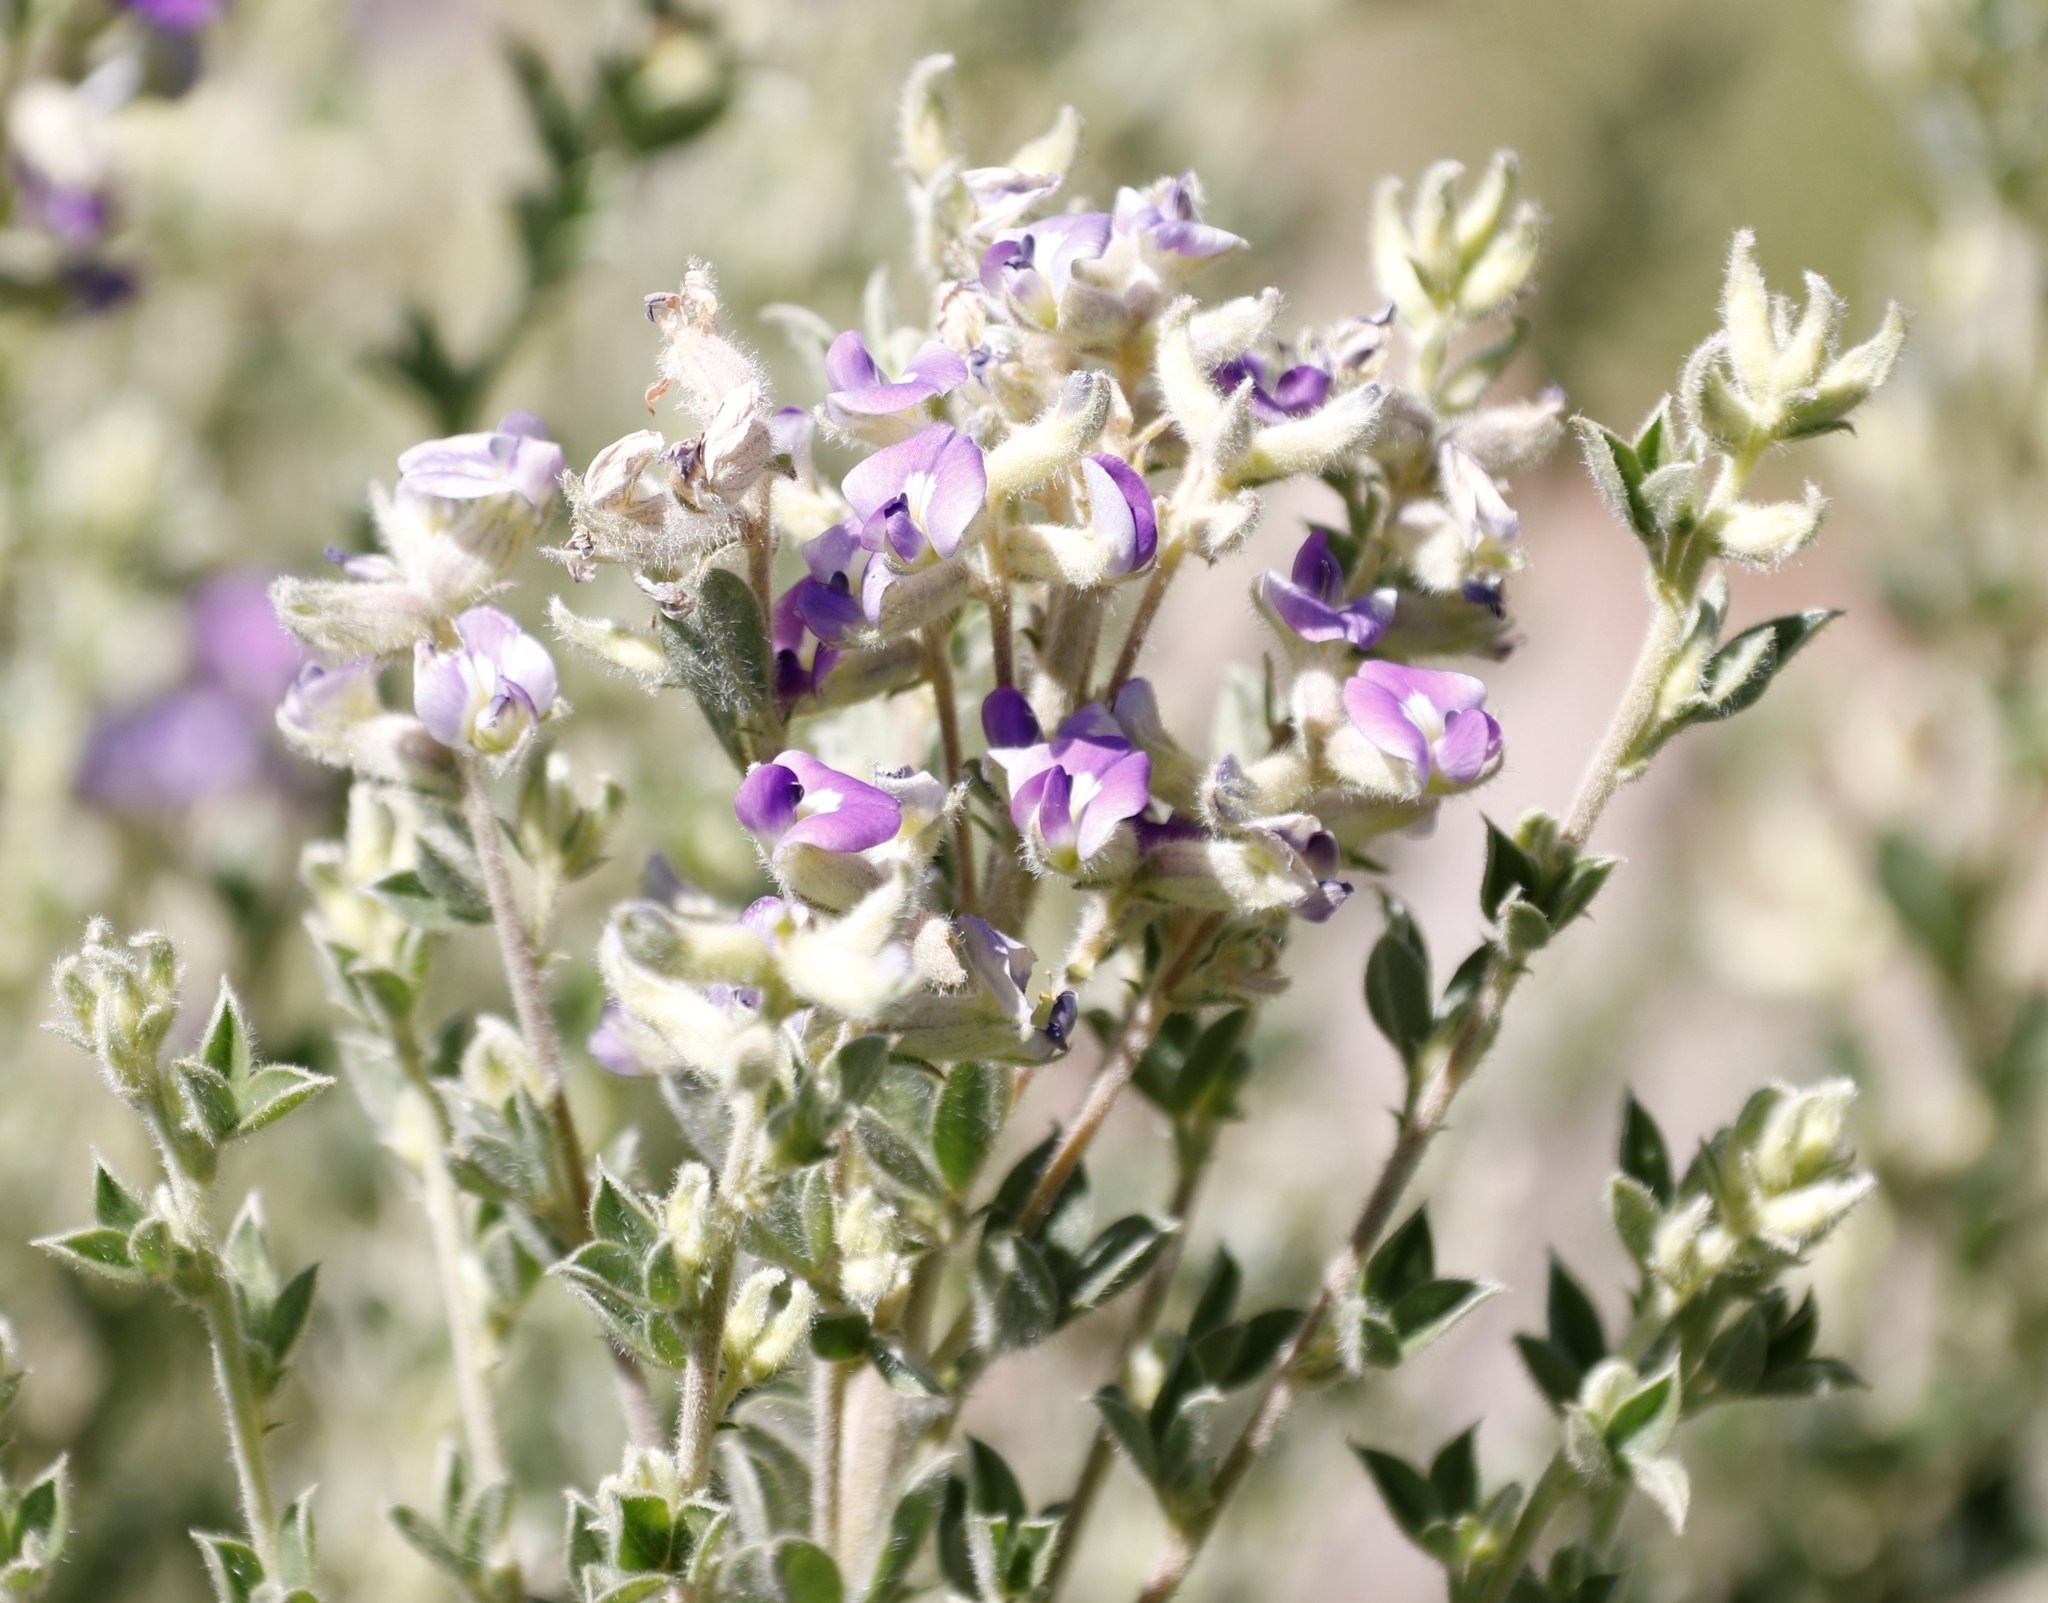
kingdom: Plantae
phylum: Tracheophyta
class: Magnoliopsida
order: Fabales
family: Fabaceae
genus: Lotononis
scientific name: Lotononis lotononoides
